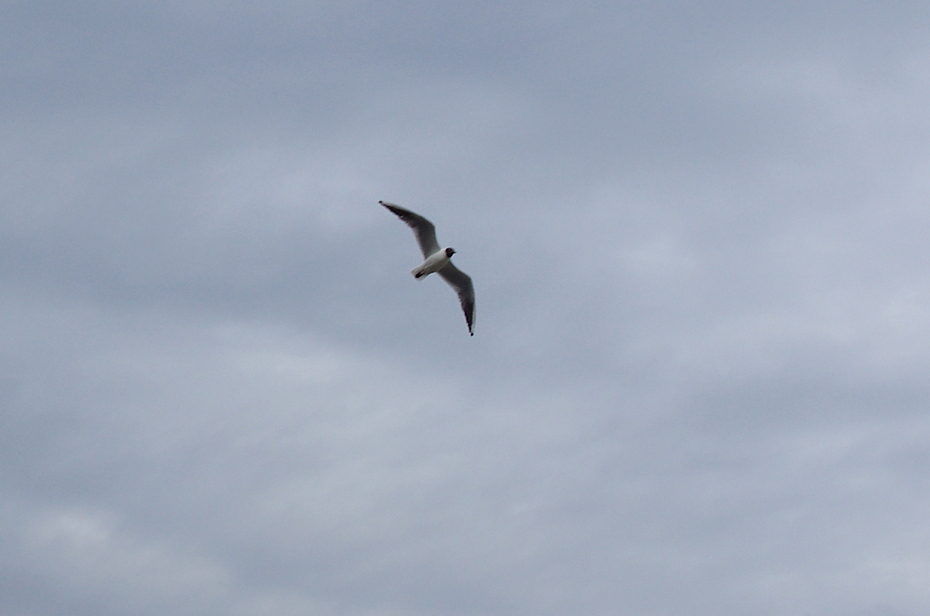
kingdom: Animalia
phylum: Chordata
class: Aves
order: Charadriiformes
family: Laridae
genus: Chroicocephalus
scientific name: Chroicocephalus ridibundus
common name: Black-headed gull
